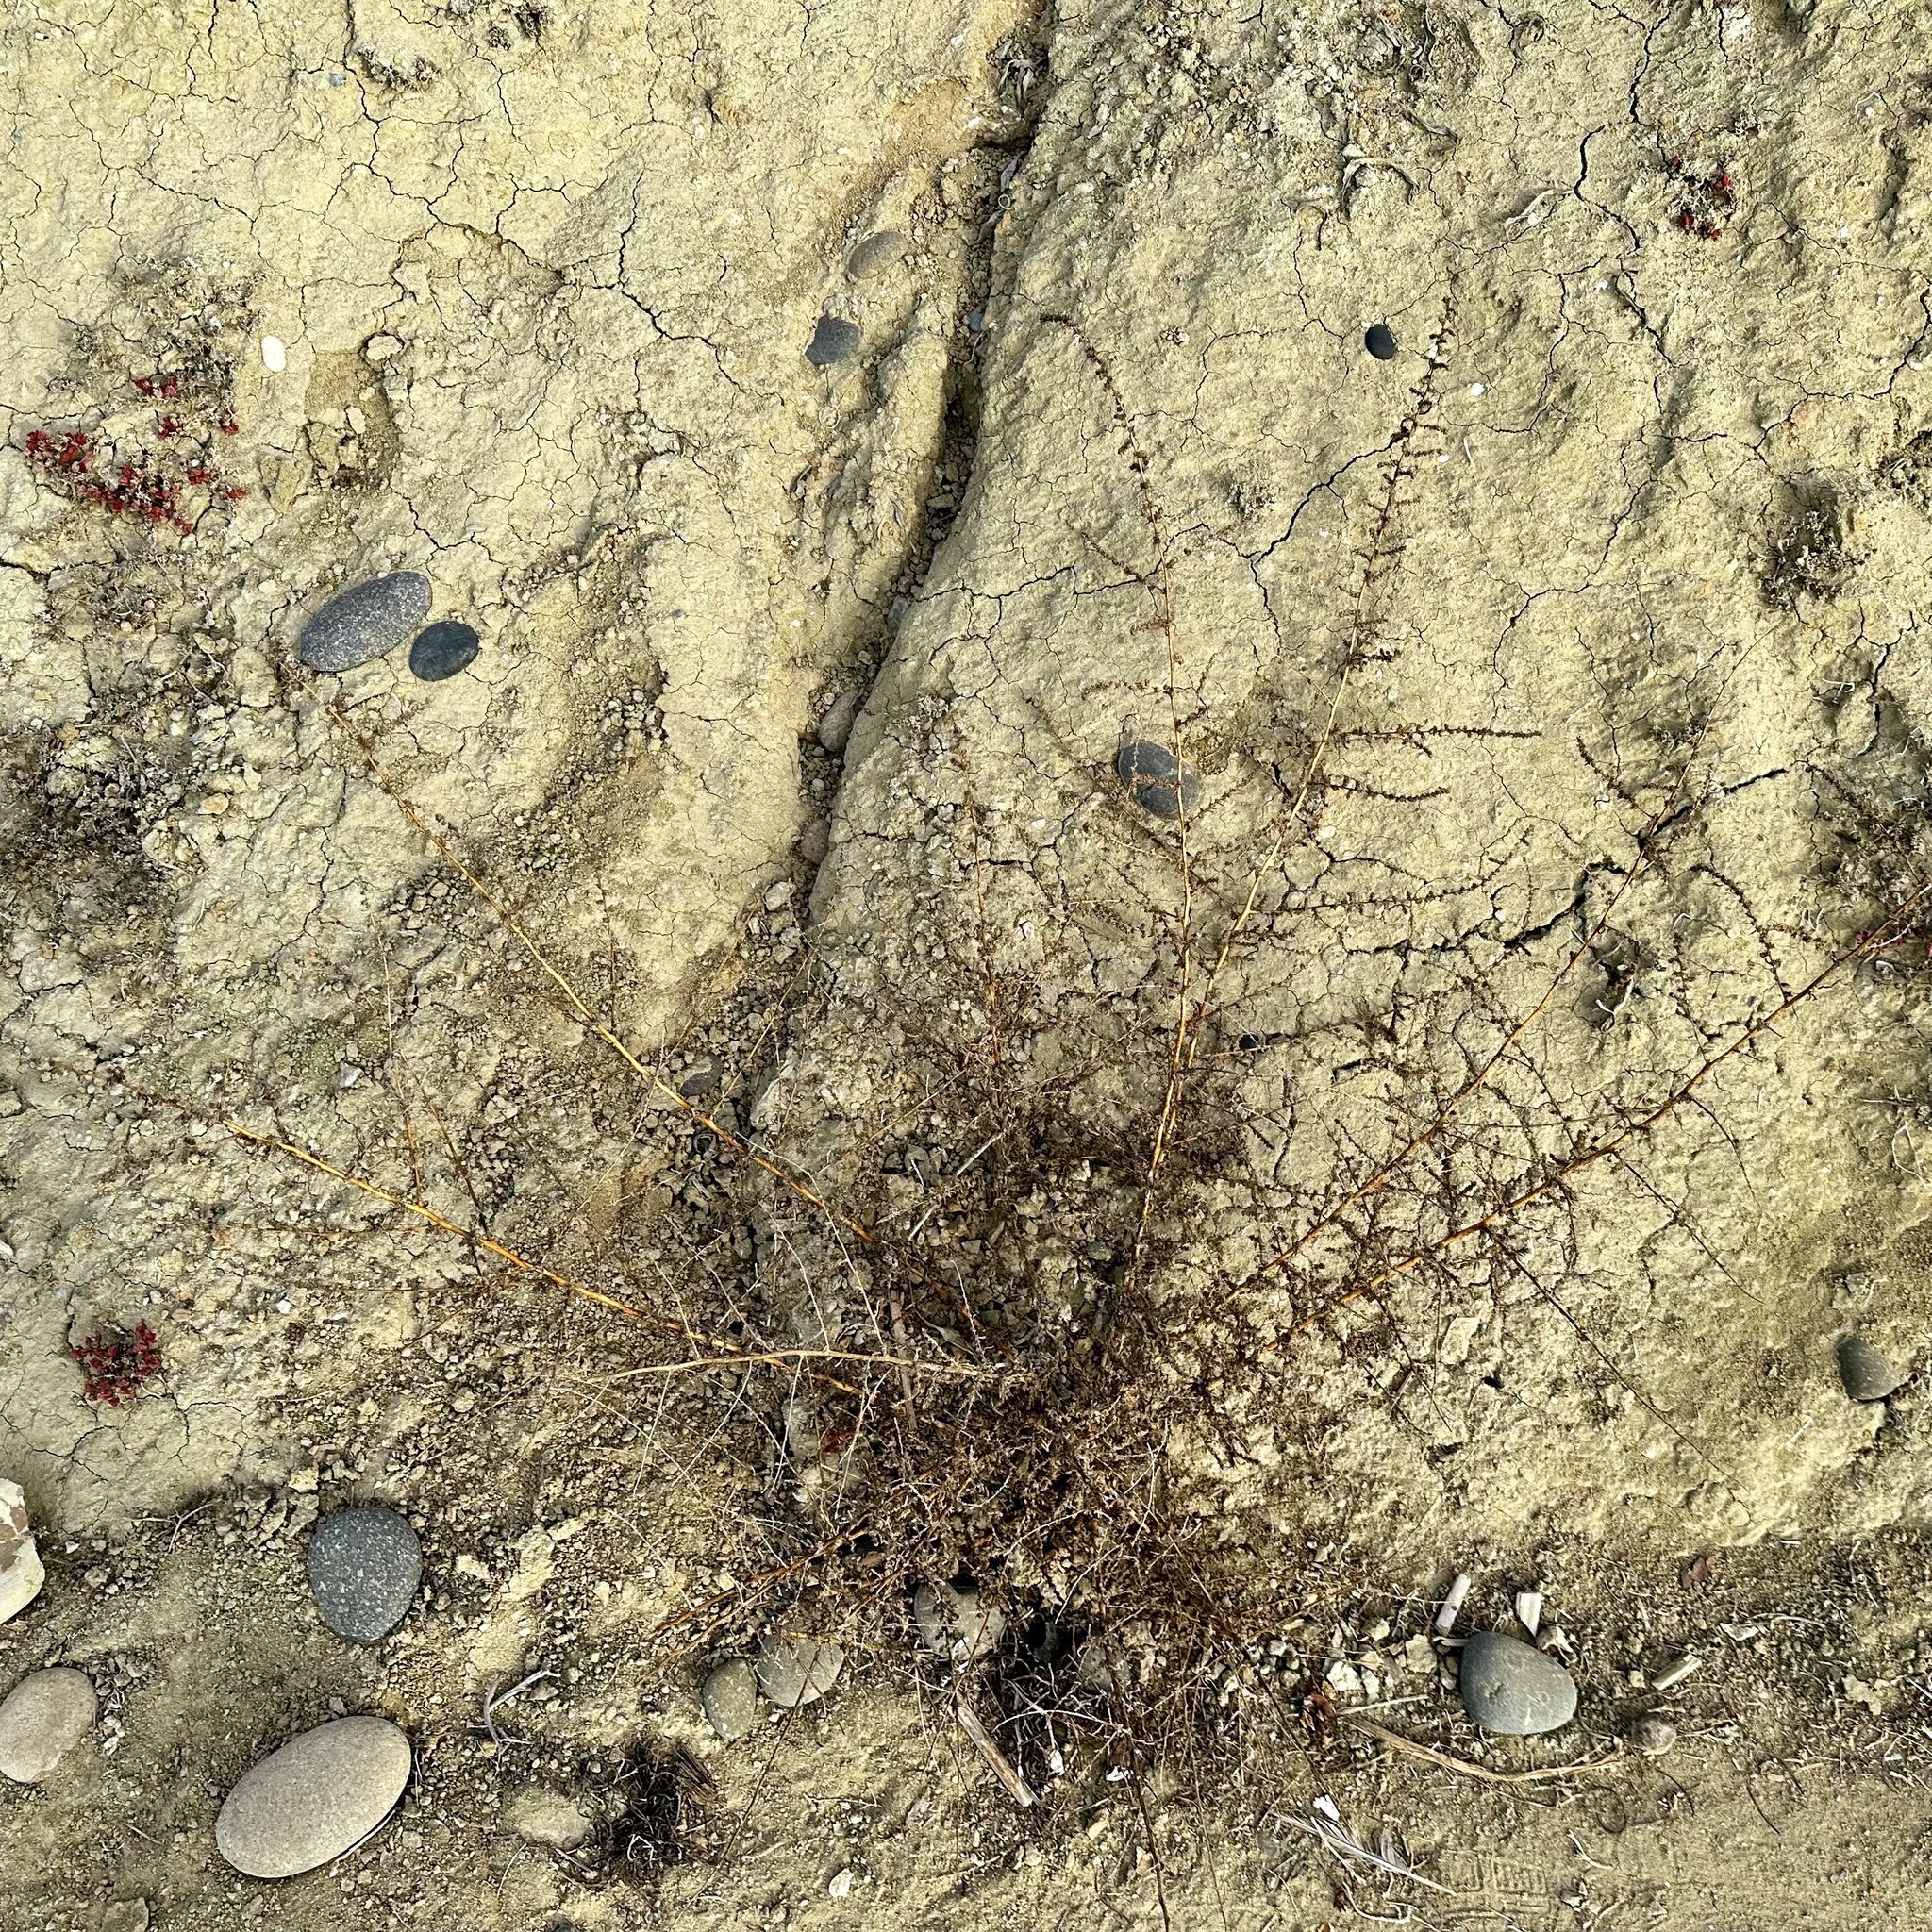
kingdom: Plantae
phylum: Tracheophyta
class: Magnoliopsida
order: Caryophyllales
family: Amaranthaceae
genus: Bassia
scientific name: Bassia hyssopifolia
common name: Fivehorn smotherweed
